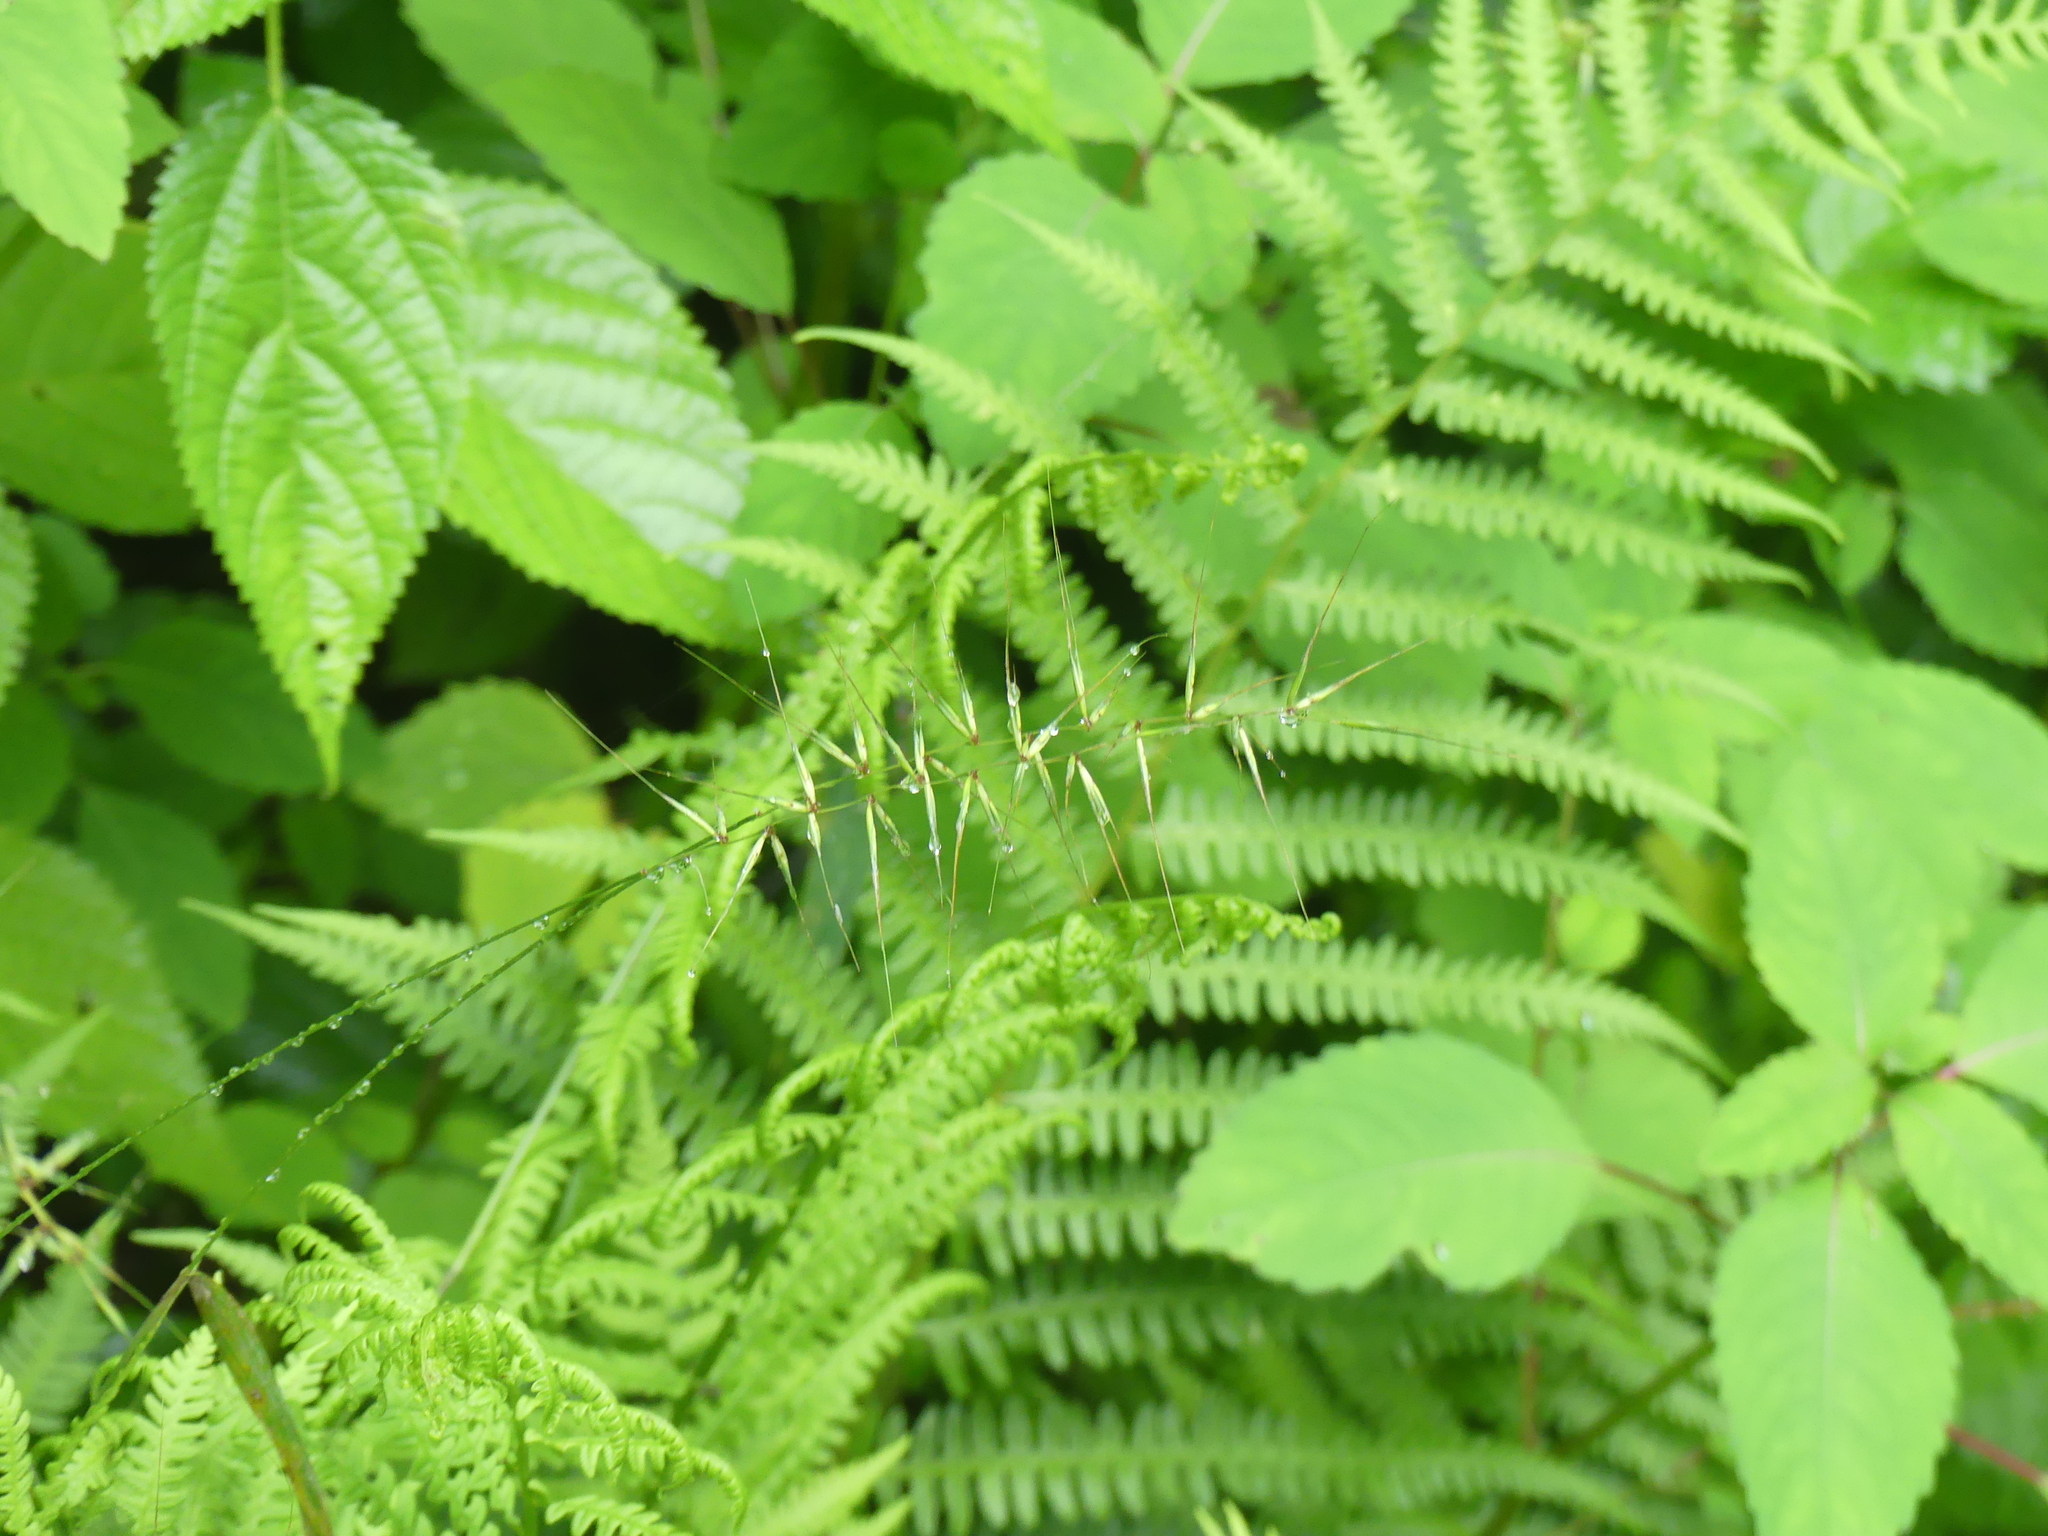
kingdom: Plantae
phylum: Tracheophyta
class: Liliopsida
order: Poales
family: Poaceae
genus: Elymus
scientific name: Elymus hystrix
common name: Bottlebrush grass
